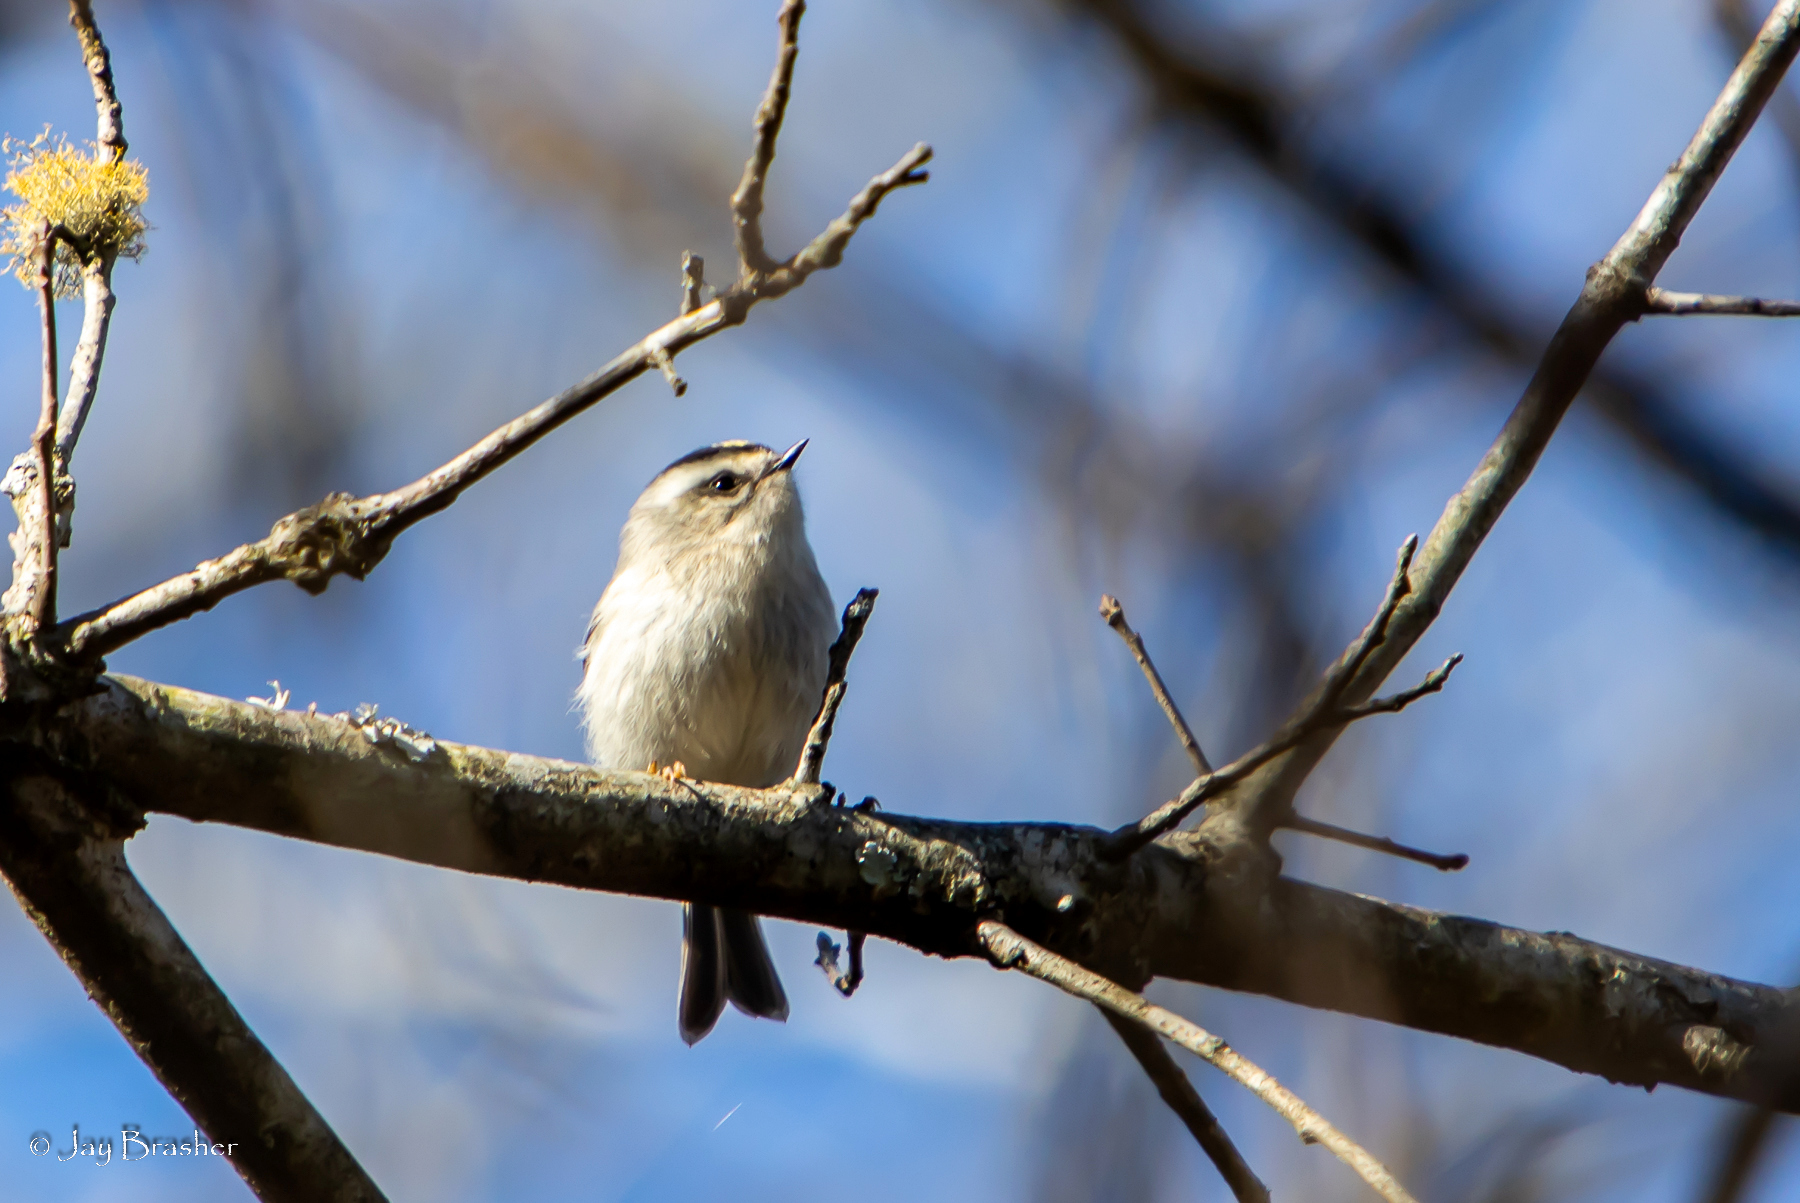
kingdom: Animalia
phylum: Chordata
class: Aves
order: Passeriformes
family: Regulidae
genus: Regulus
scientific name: Regulus satrapa
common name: Golden-crowned kinglet
